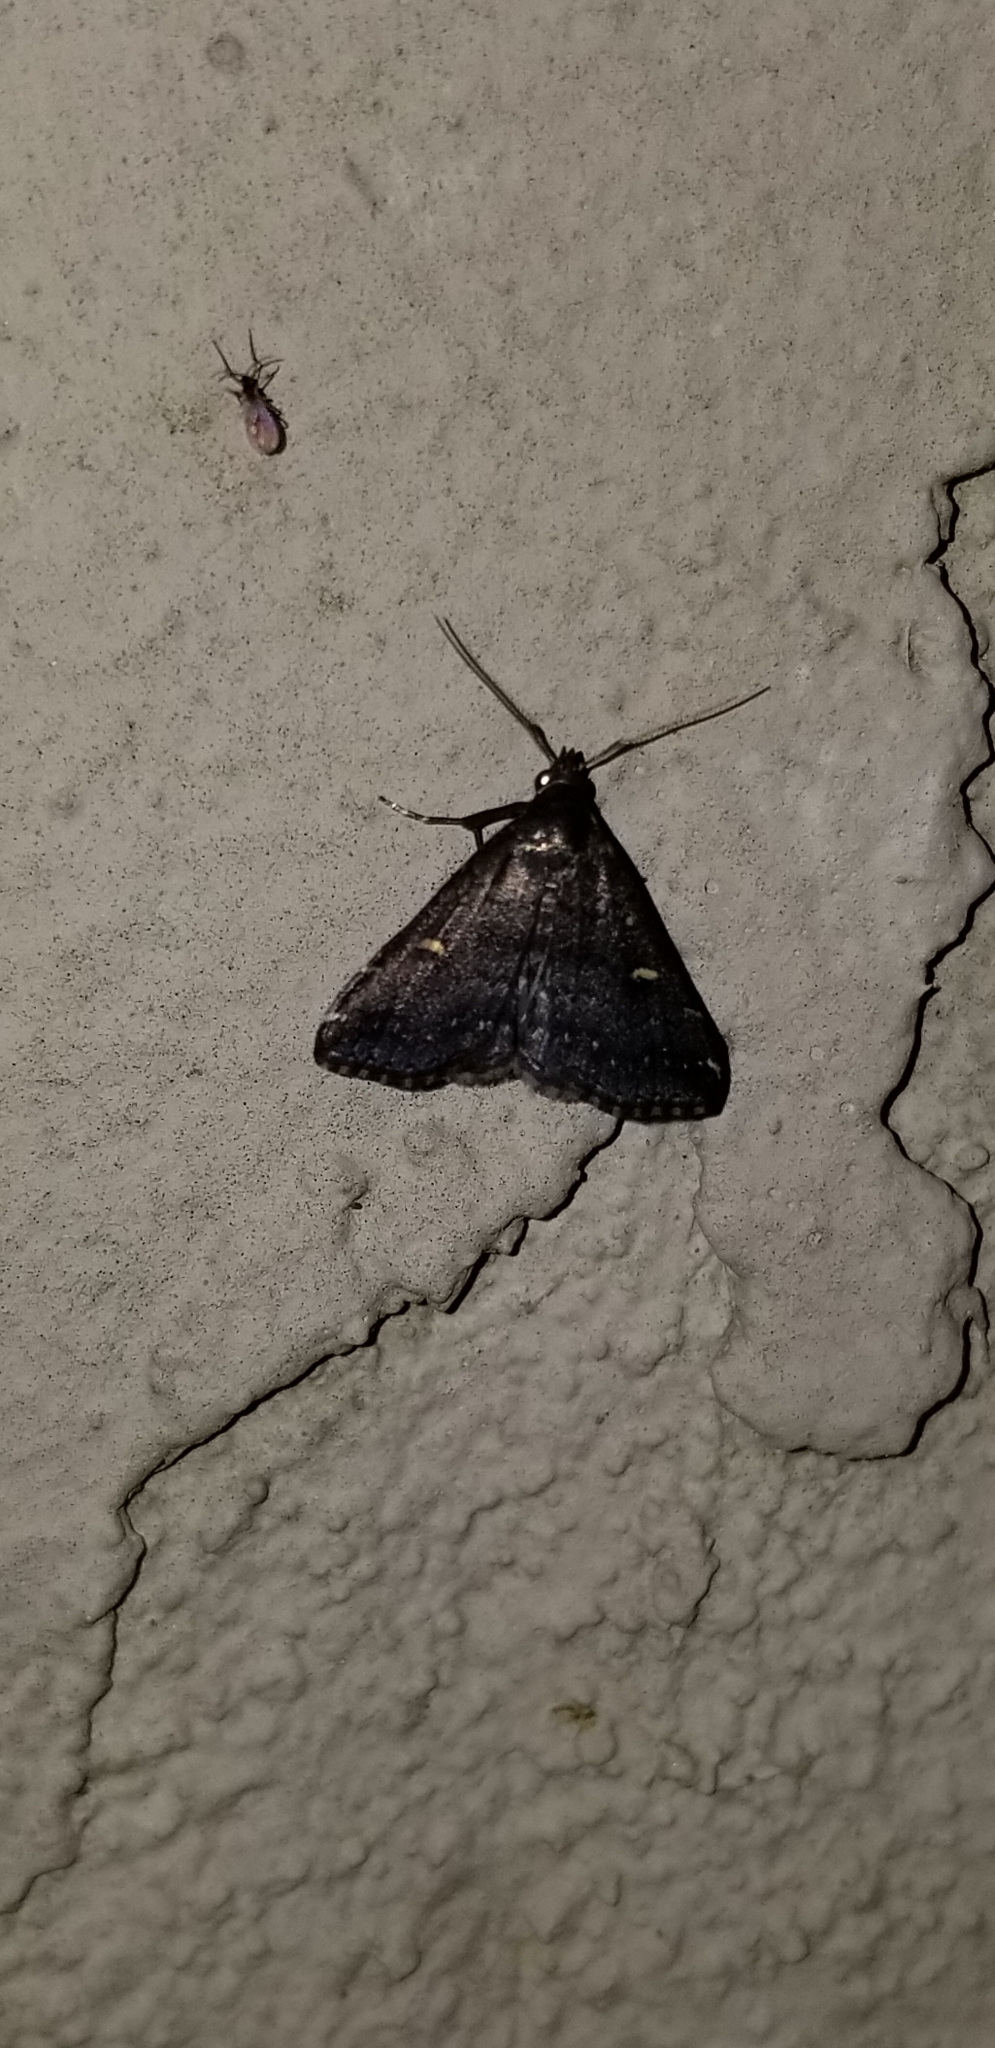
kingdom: Animalia
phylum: Arthropoda
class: Insecta
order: Lepidoptera
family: Erebidae
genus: Tetanolita
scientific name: Tetanolita mynesalis
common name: Smoky tetanolita moth
